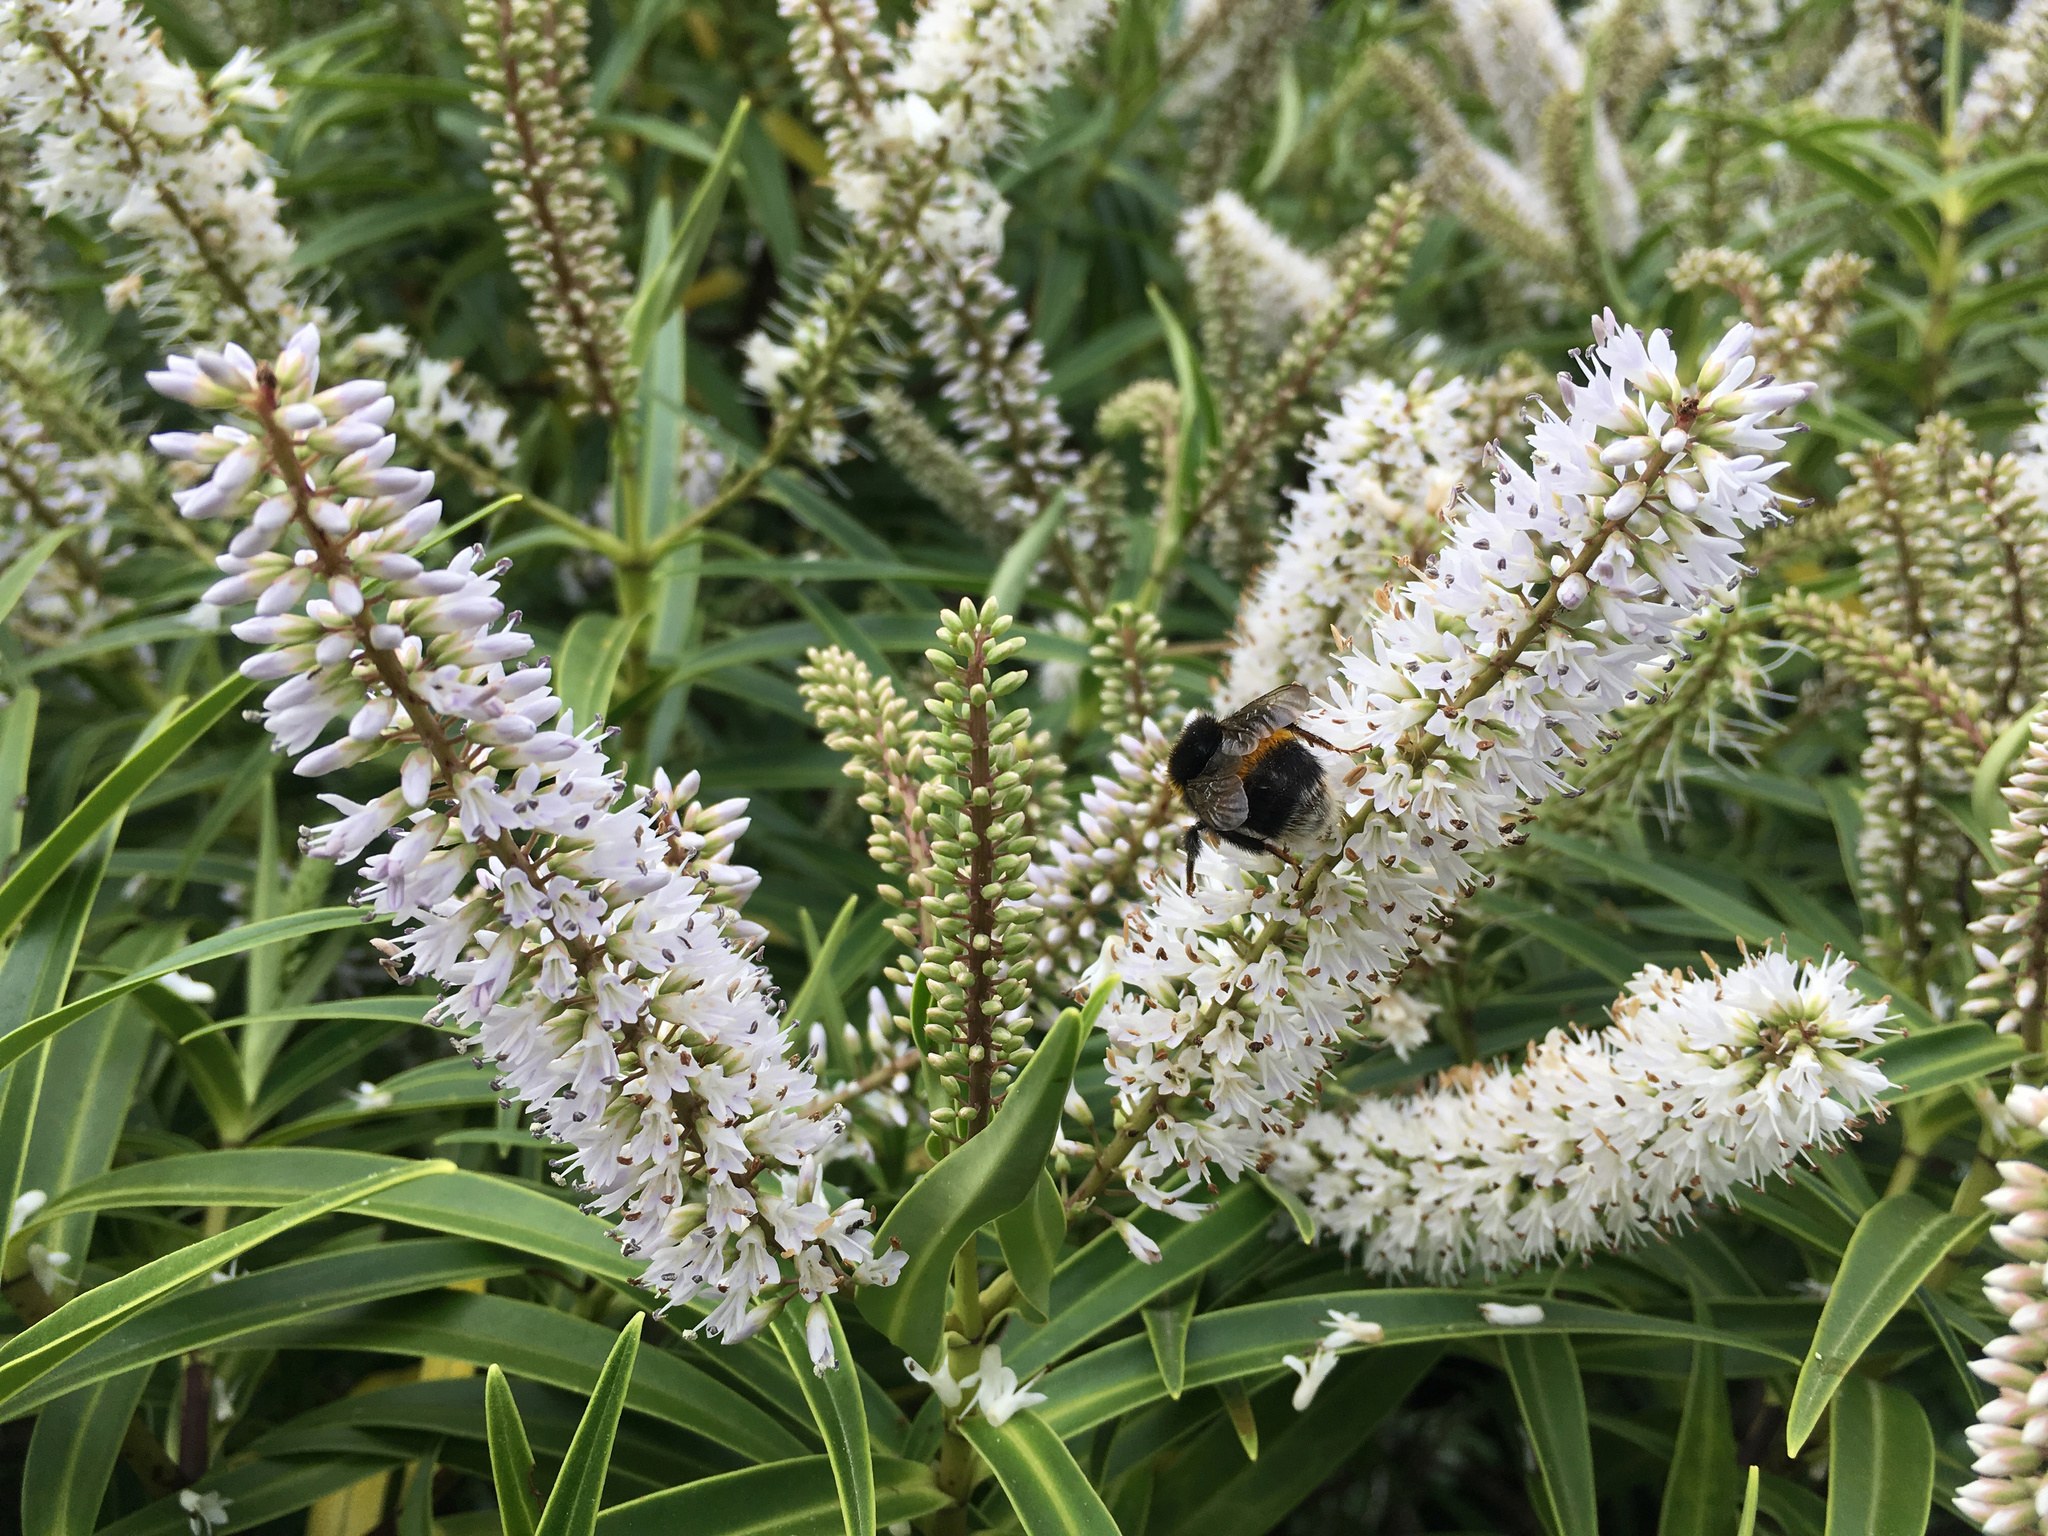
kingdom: Animalia
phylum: Arthropoda
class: Insecta
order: Hymenoptera
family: Apidae
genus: Bombus
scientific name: Bombus terrestris
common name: Buff-tailed bumblebee
